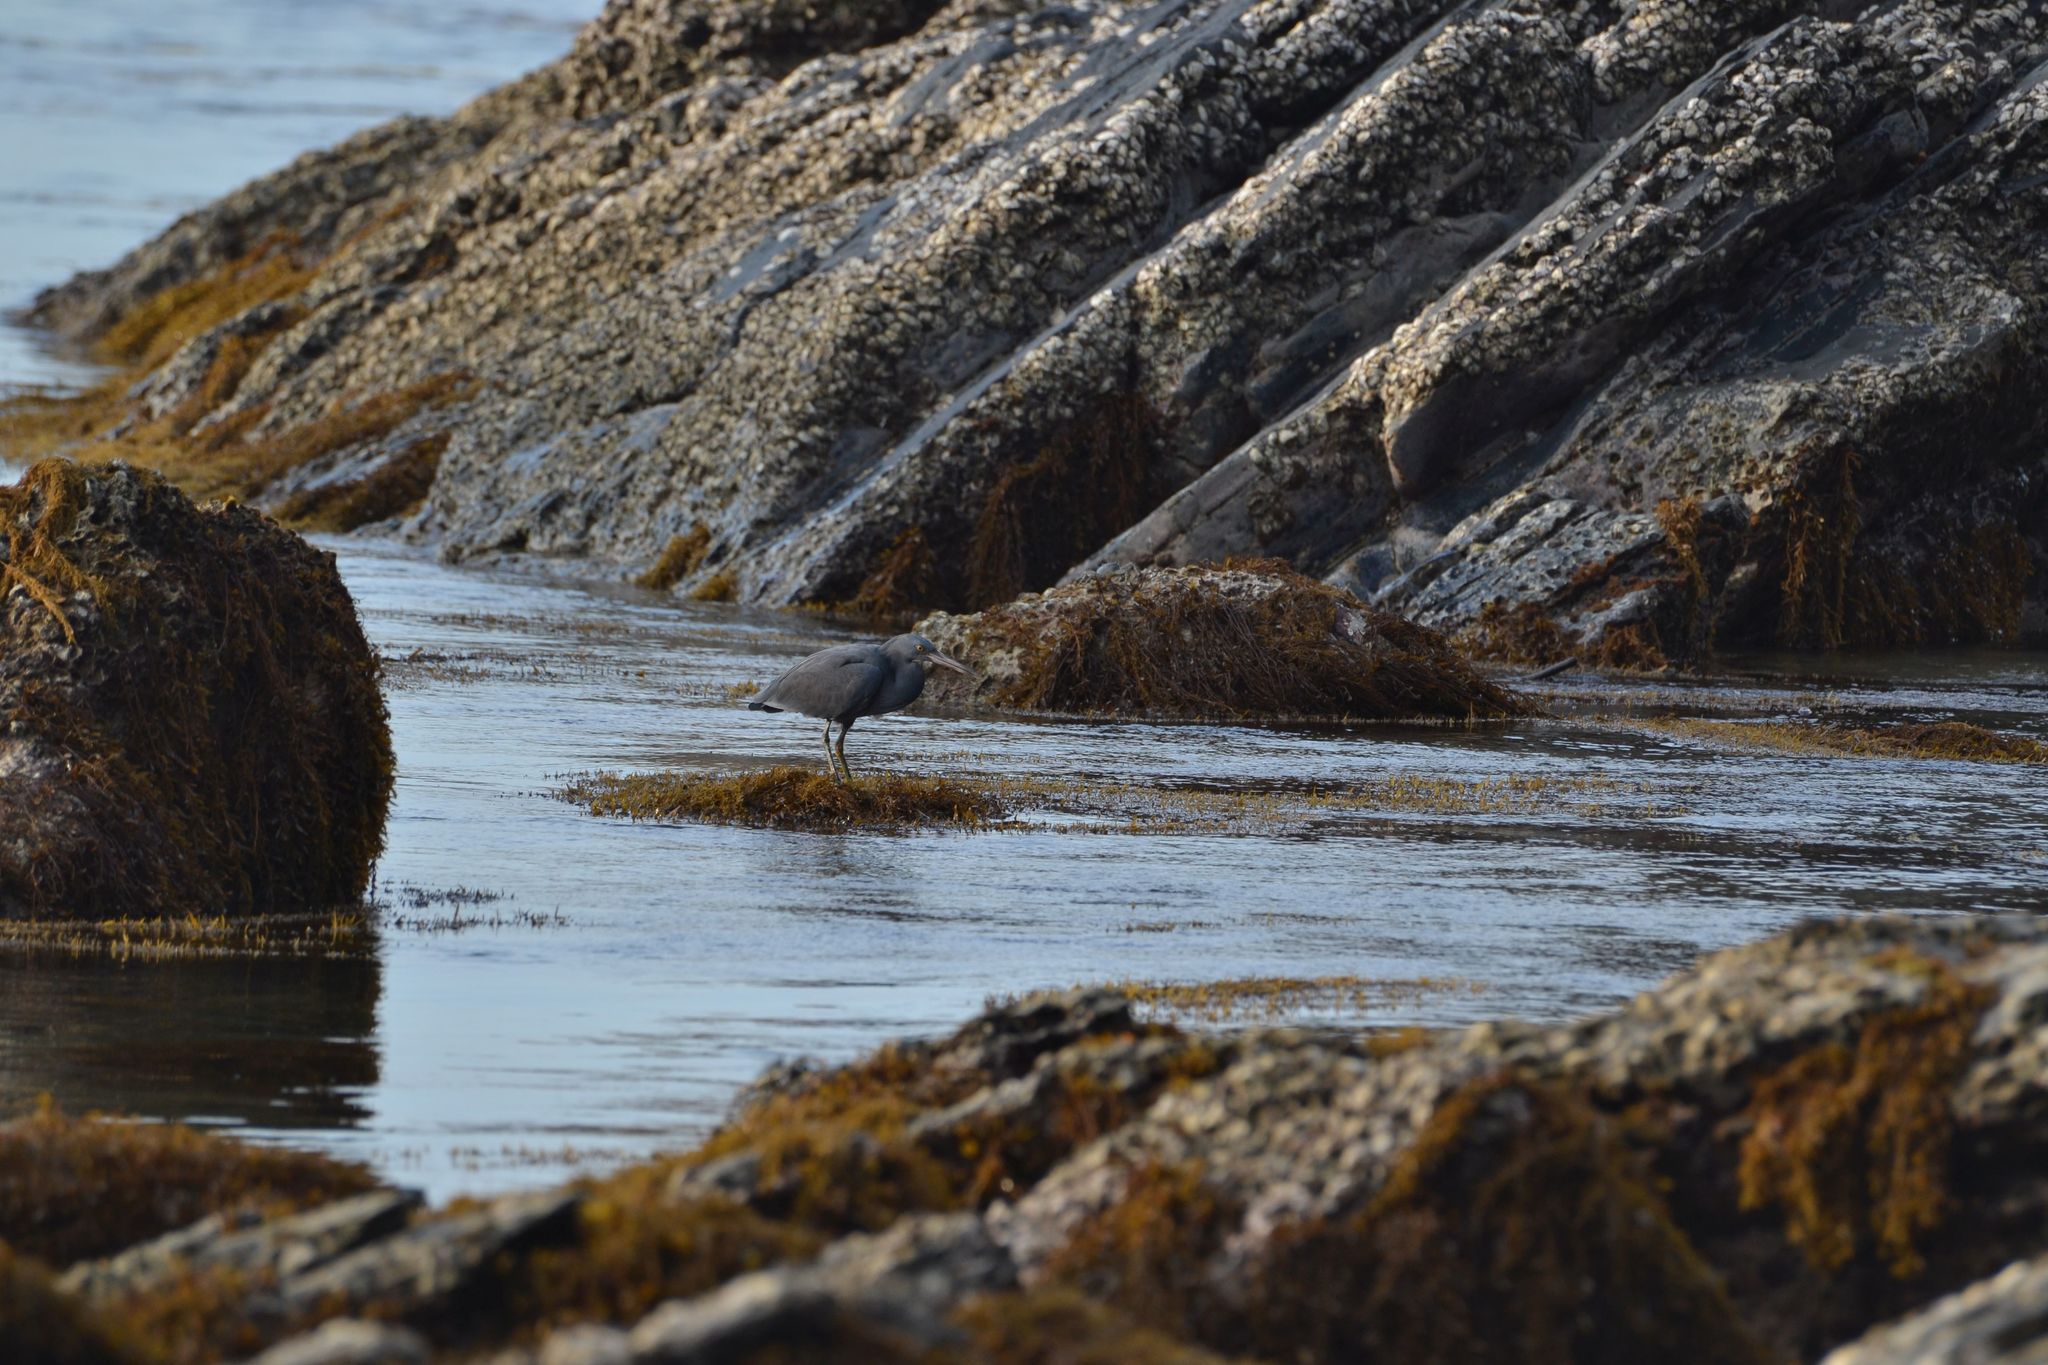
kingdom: Animalia
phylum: Chordata
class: Aves
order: Pelecaniformes
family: Ardeidae
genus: Egretta
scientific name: Egretta sacra
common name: Pacific reef heron
